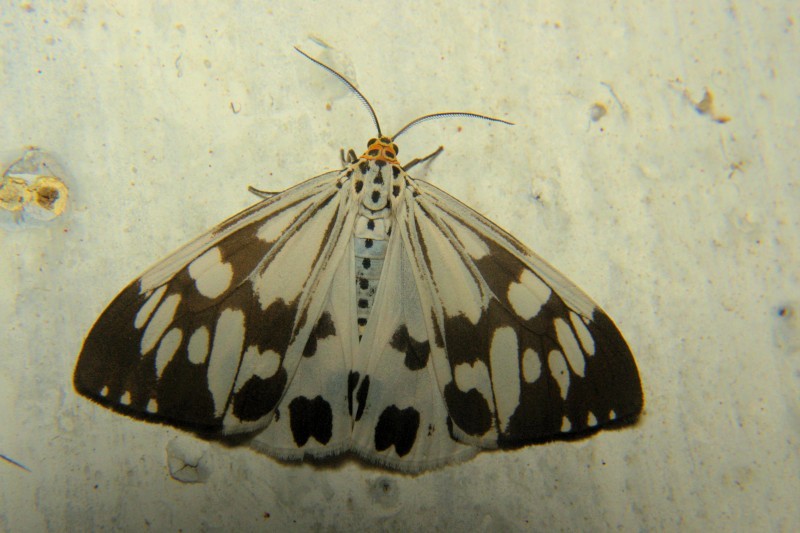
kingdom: Animalia
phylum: Arthropoda
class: Insecta
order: Lepidoptera
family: Erebidae
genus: Nyctemera
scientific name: Nyctemera adversata
